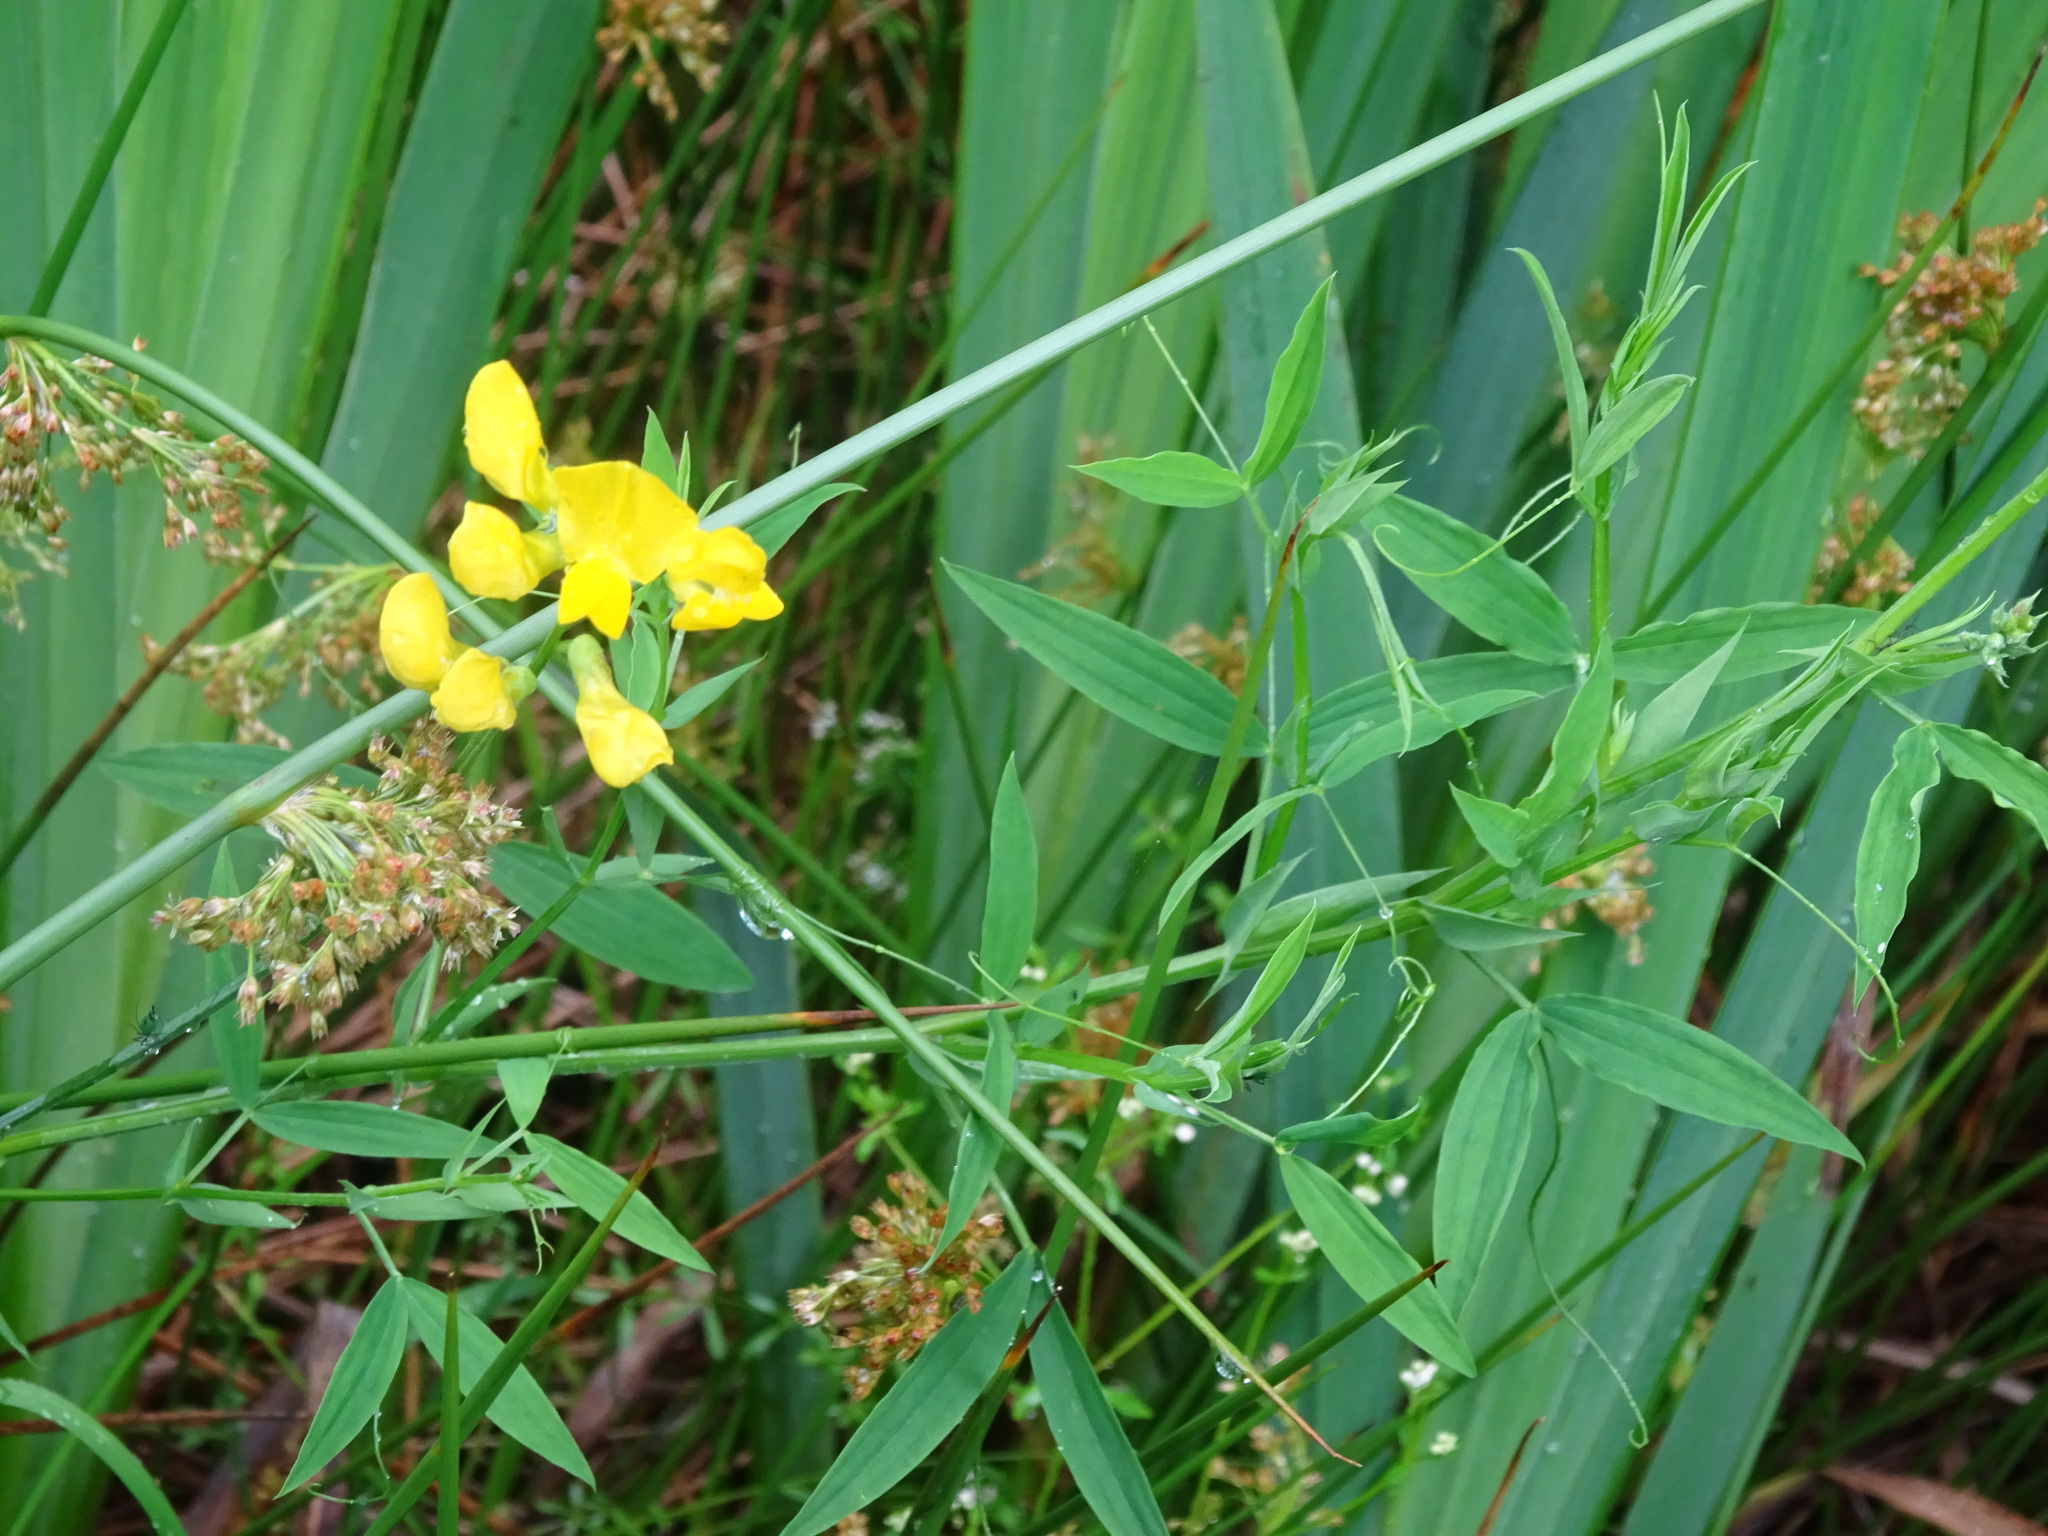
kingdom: Plantae
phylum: Tracheophyta
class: Magnoliopsida
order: Fabales
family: Fabaceae
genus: Lathyrus
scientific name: Lathyrus pratensis
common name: Meadow vetchling
